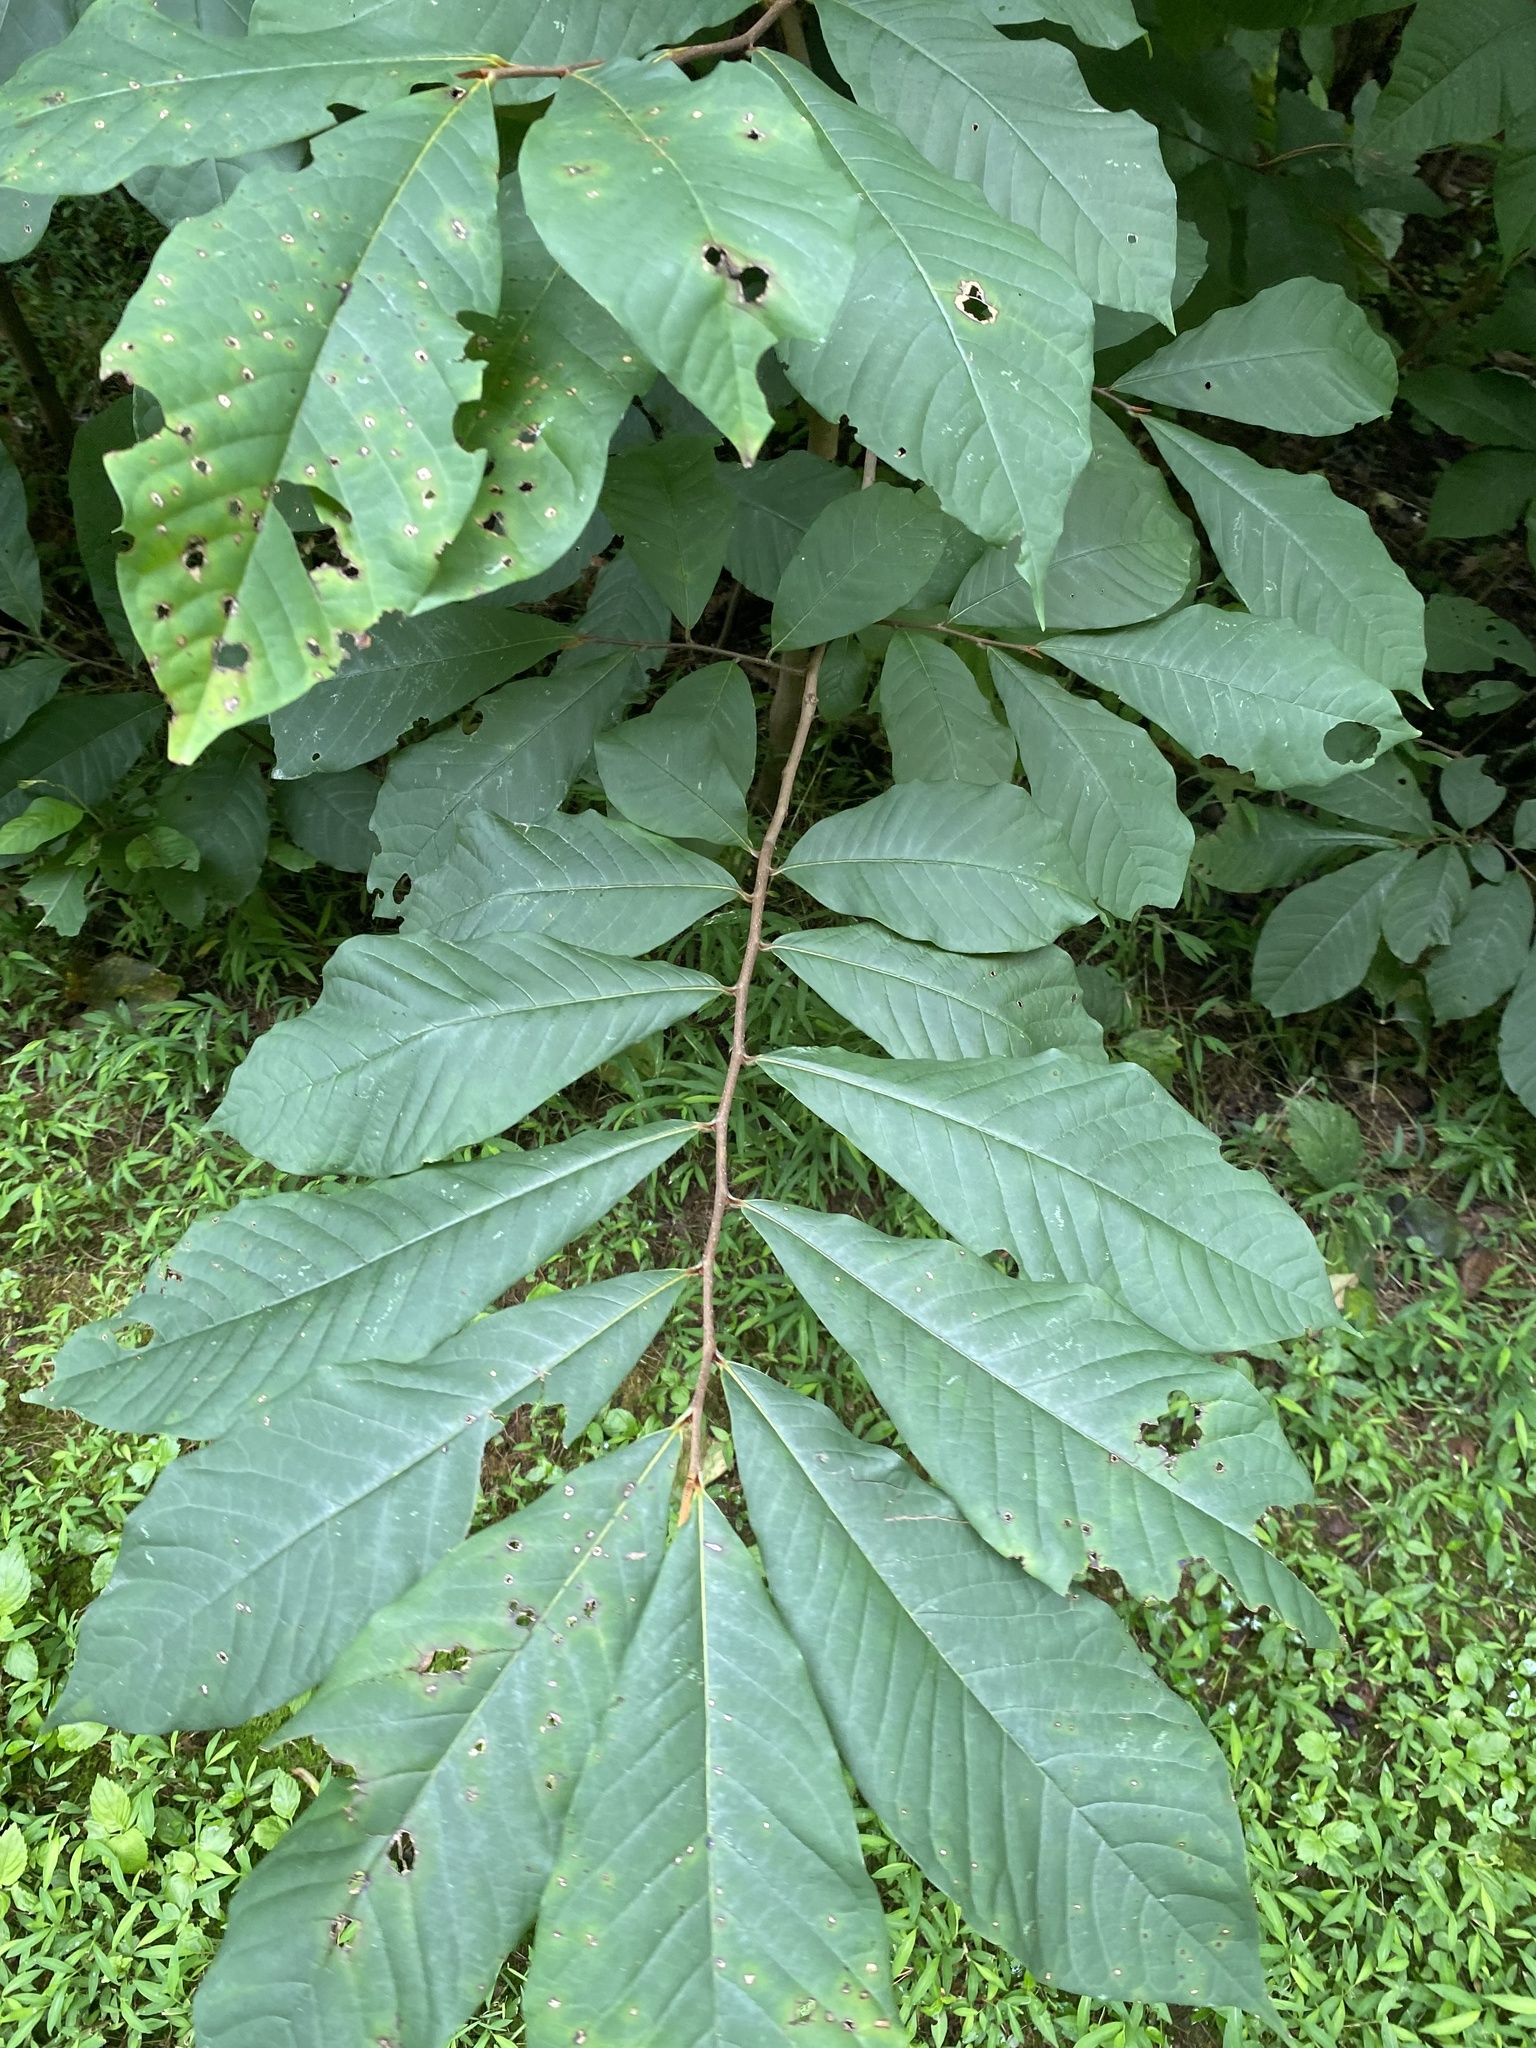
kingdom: Plantae
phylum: Tracheophyta
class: Magnoliopsida
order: Magnoliales
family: Annonaceae
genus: Asimina
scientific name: Asimina triloba
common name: Dog-banana
